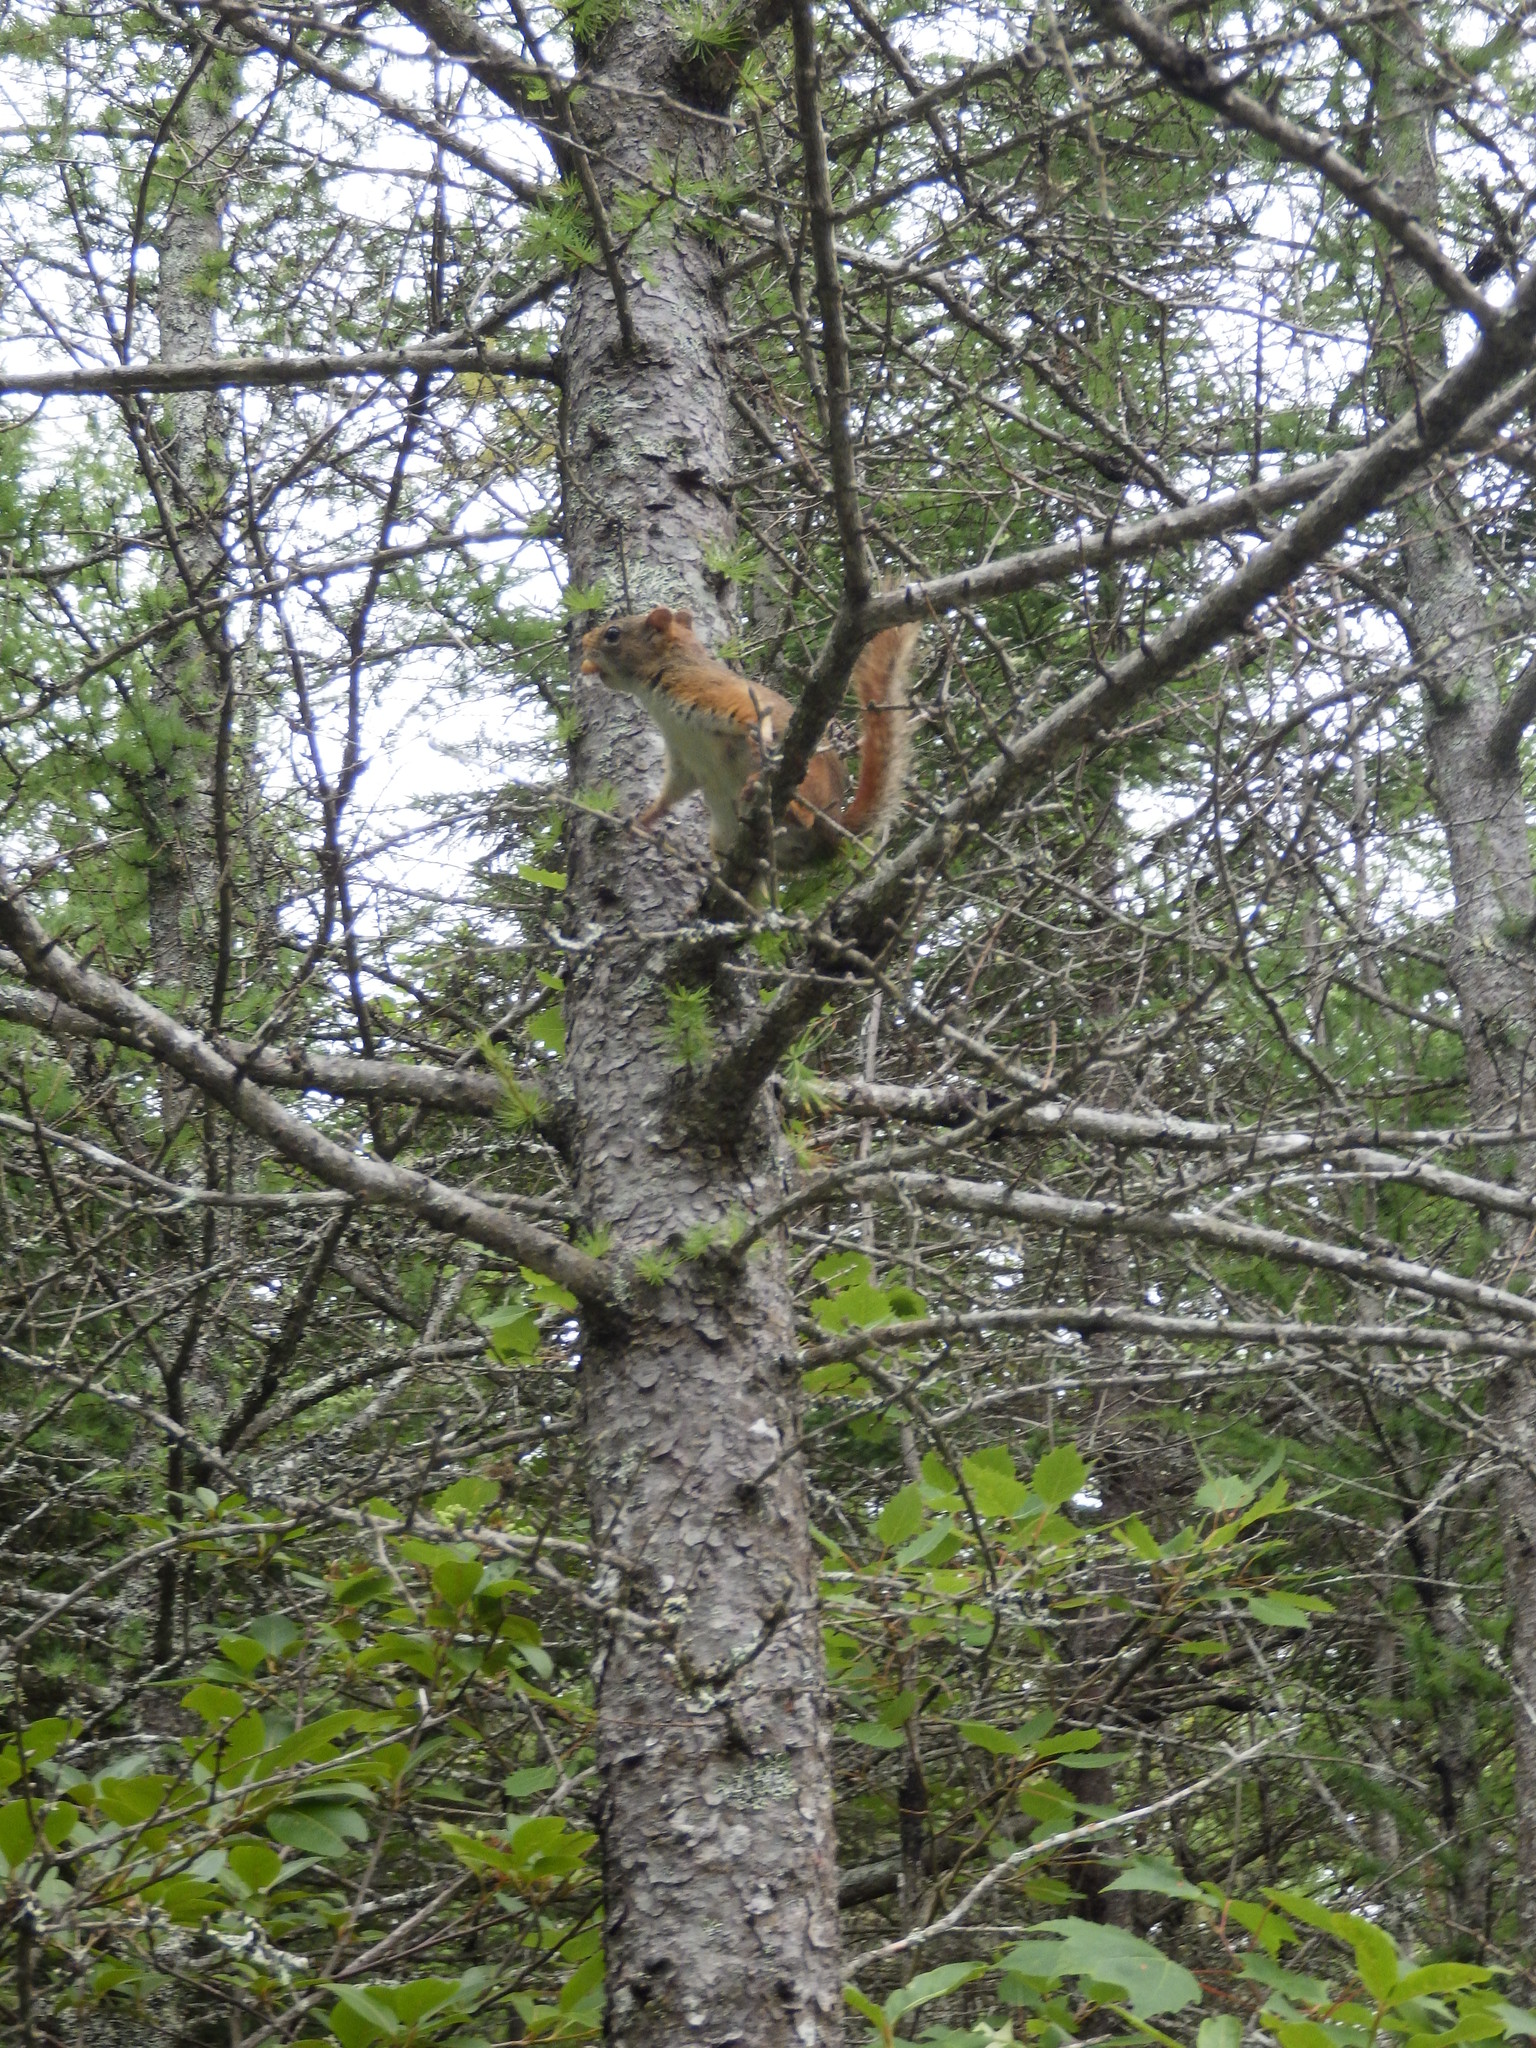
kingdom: Animalia
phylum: Chordata
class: Mammalia
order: Rodentia
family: Sciuridae
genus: Tamiasciurus
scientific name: Tamiasciurus hudsonicus
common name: Red squirrel
